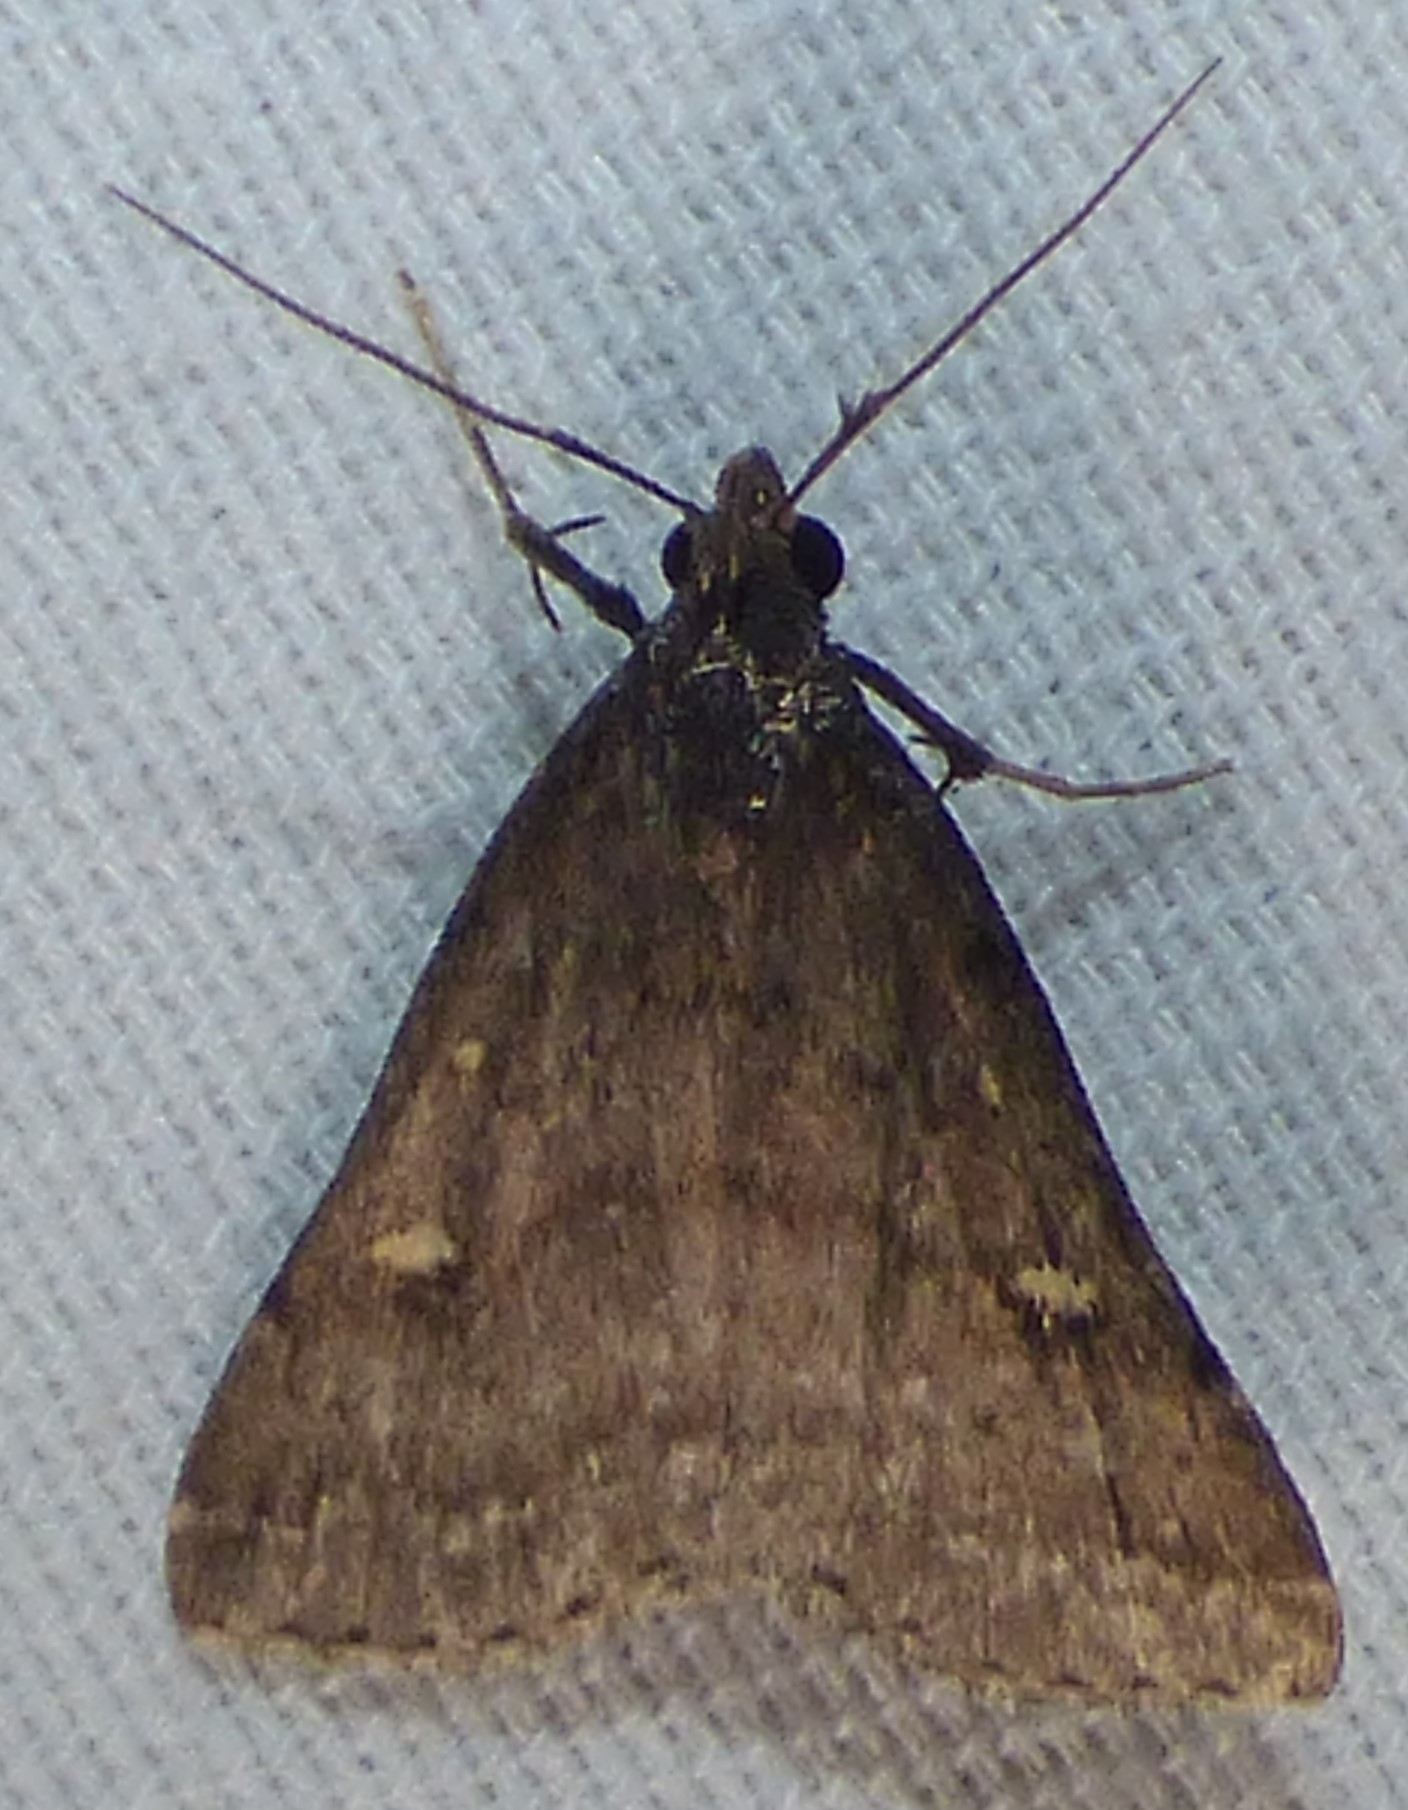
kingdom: Animalia
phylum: Arthropoda
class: Insecta
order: Lepidoptera
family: Erebidae
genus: Tetanolita
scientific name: Tetanolita mynesalis
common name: Smoky tetanolita moth
